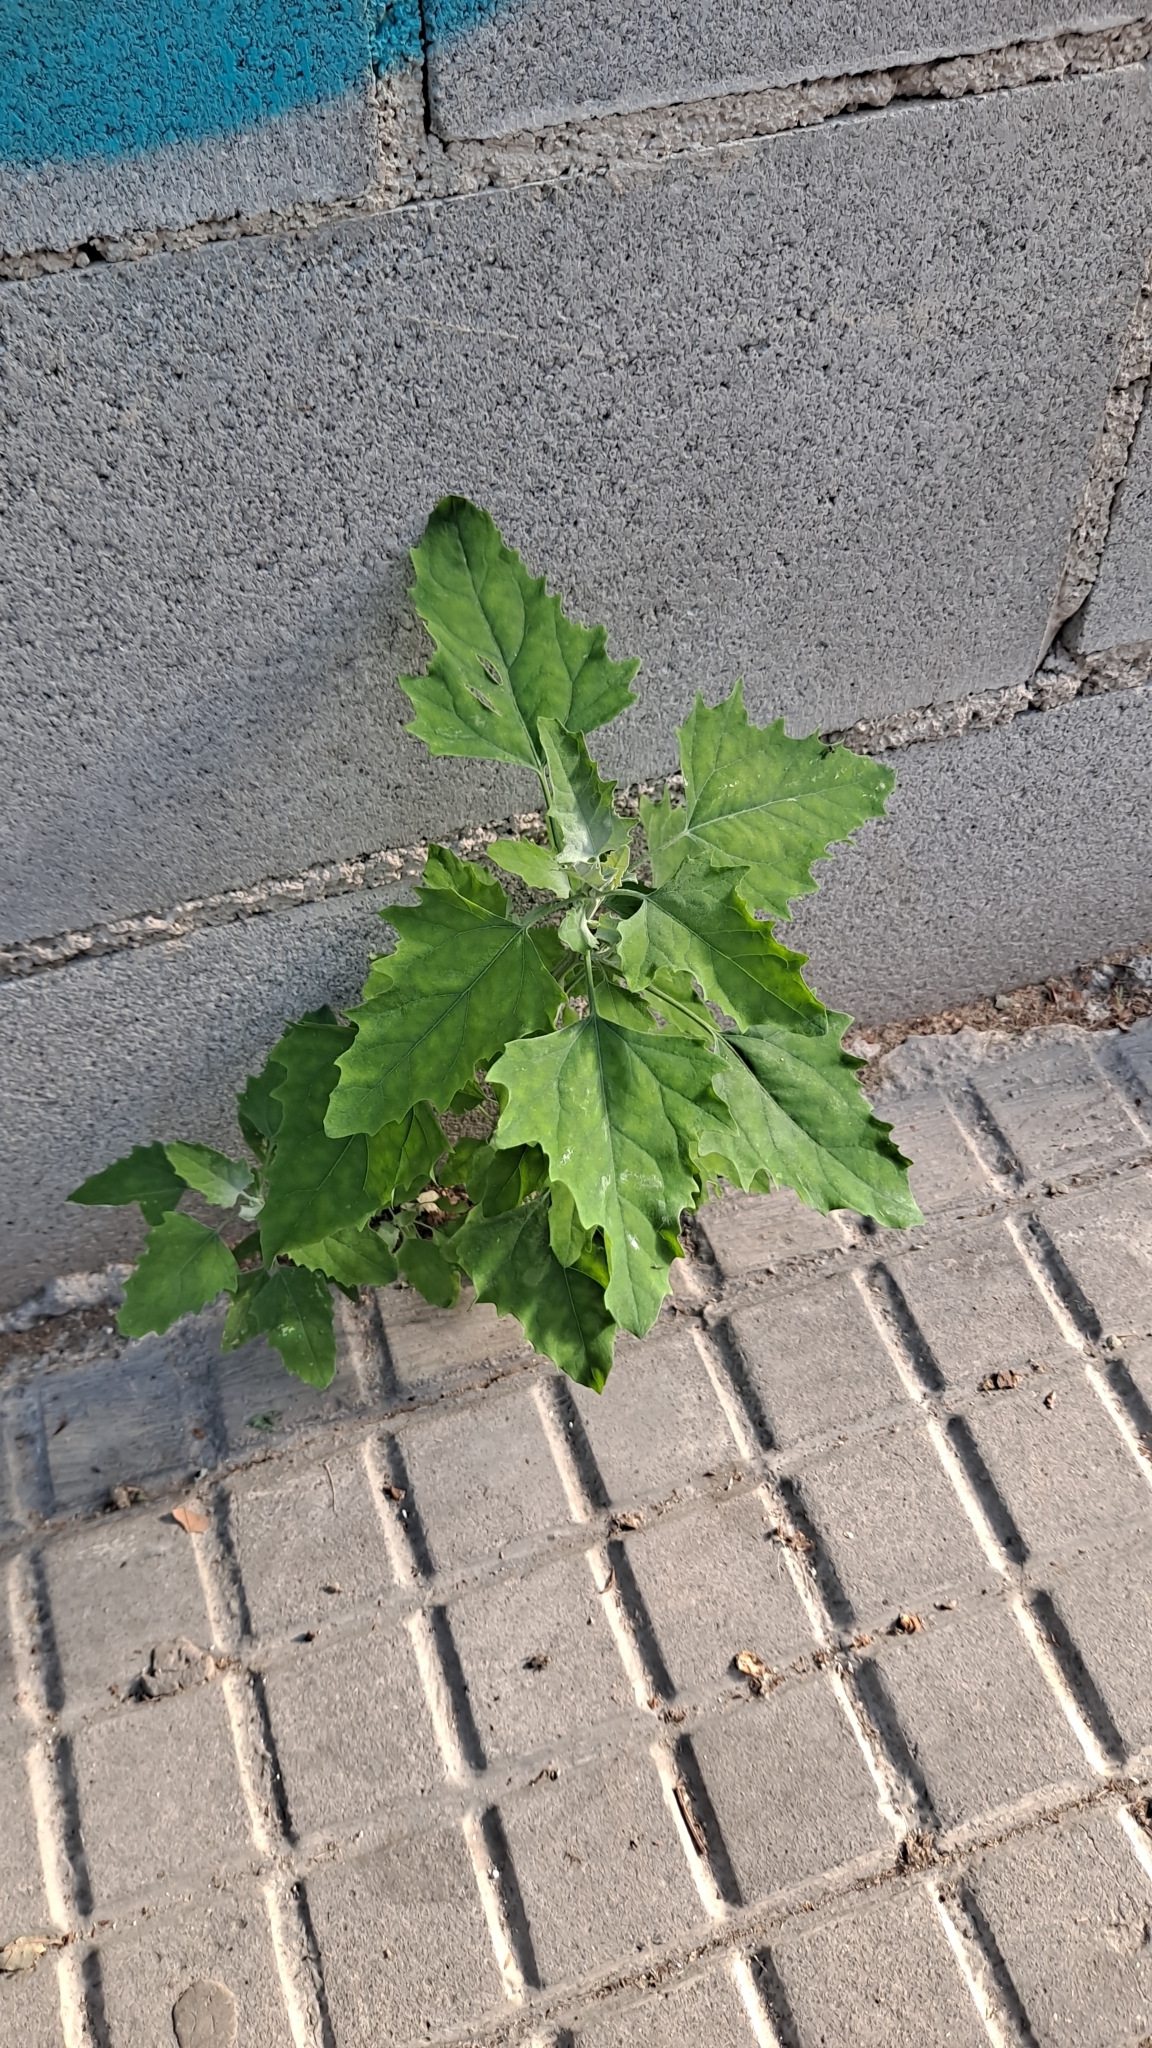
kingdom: Plantae
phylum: Tracheophyta
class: Magnoliopsida
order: Caryophyllales
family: Amaranthaceae
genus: Chenopodium
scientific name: Chenopodium album
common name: Fat-hen
